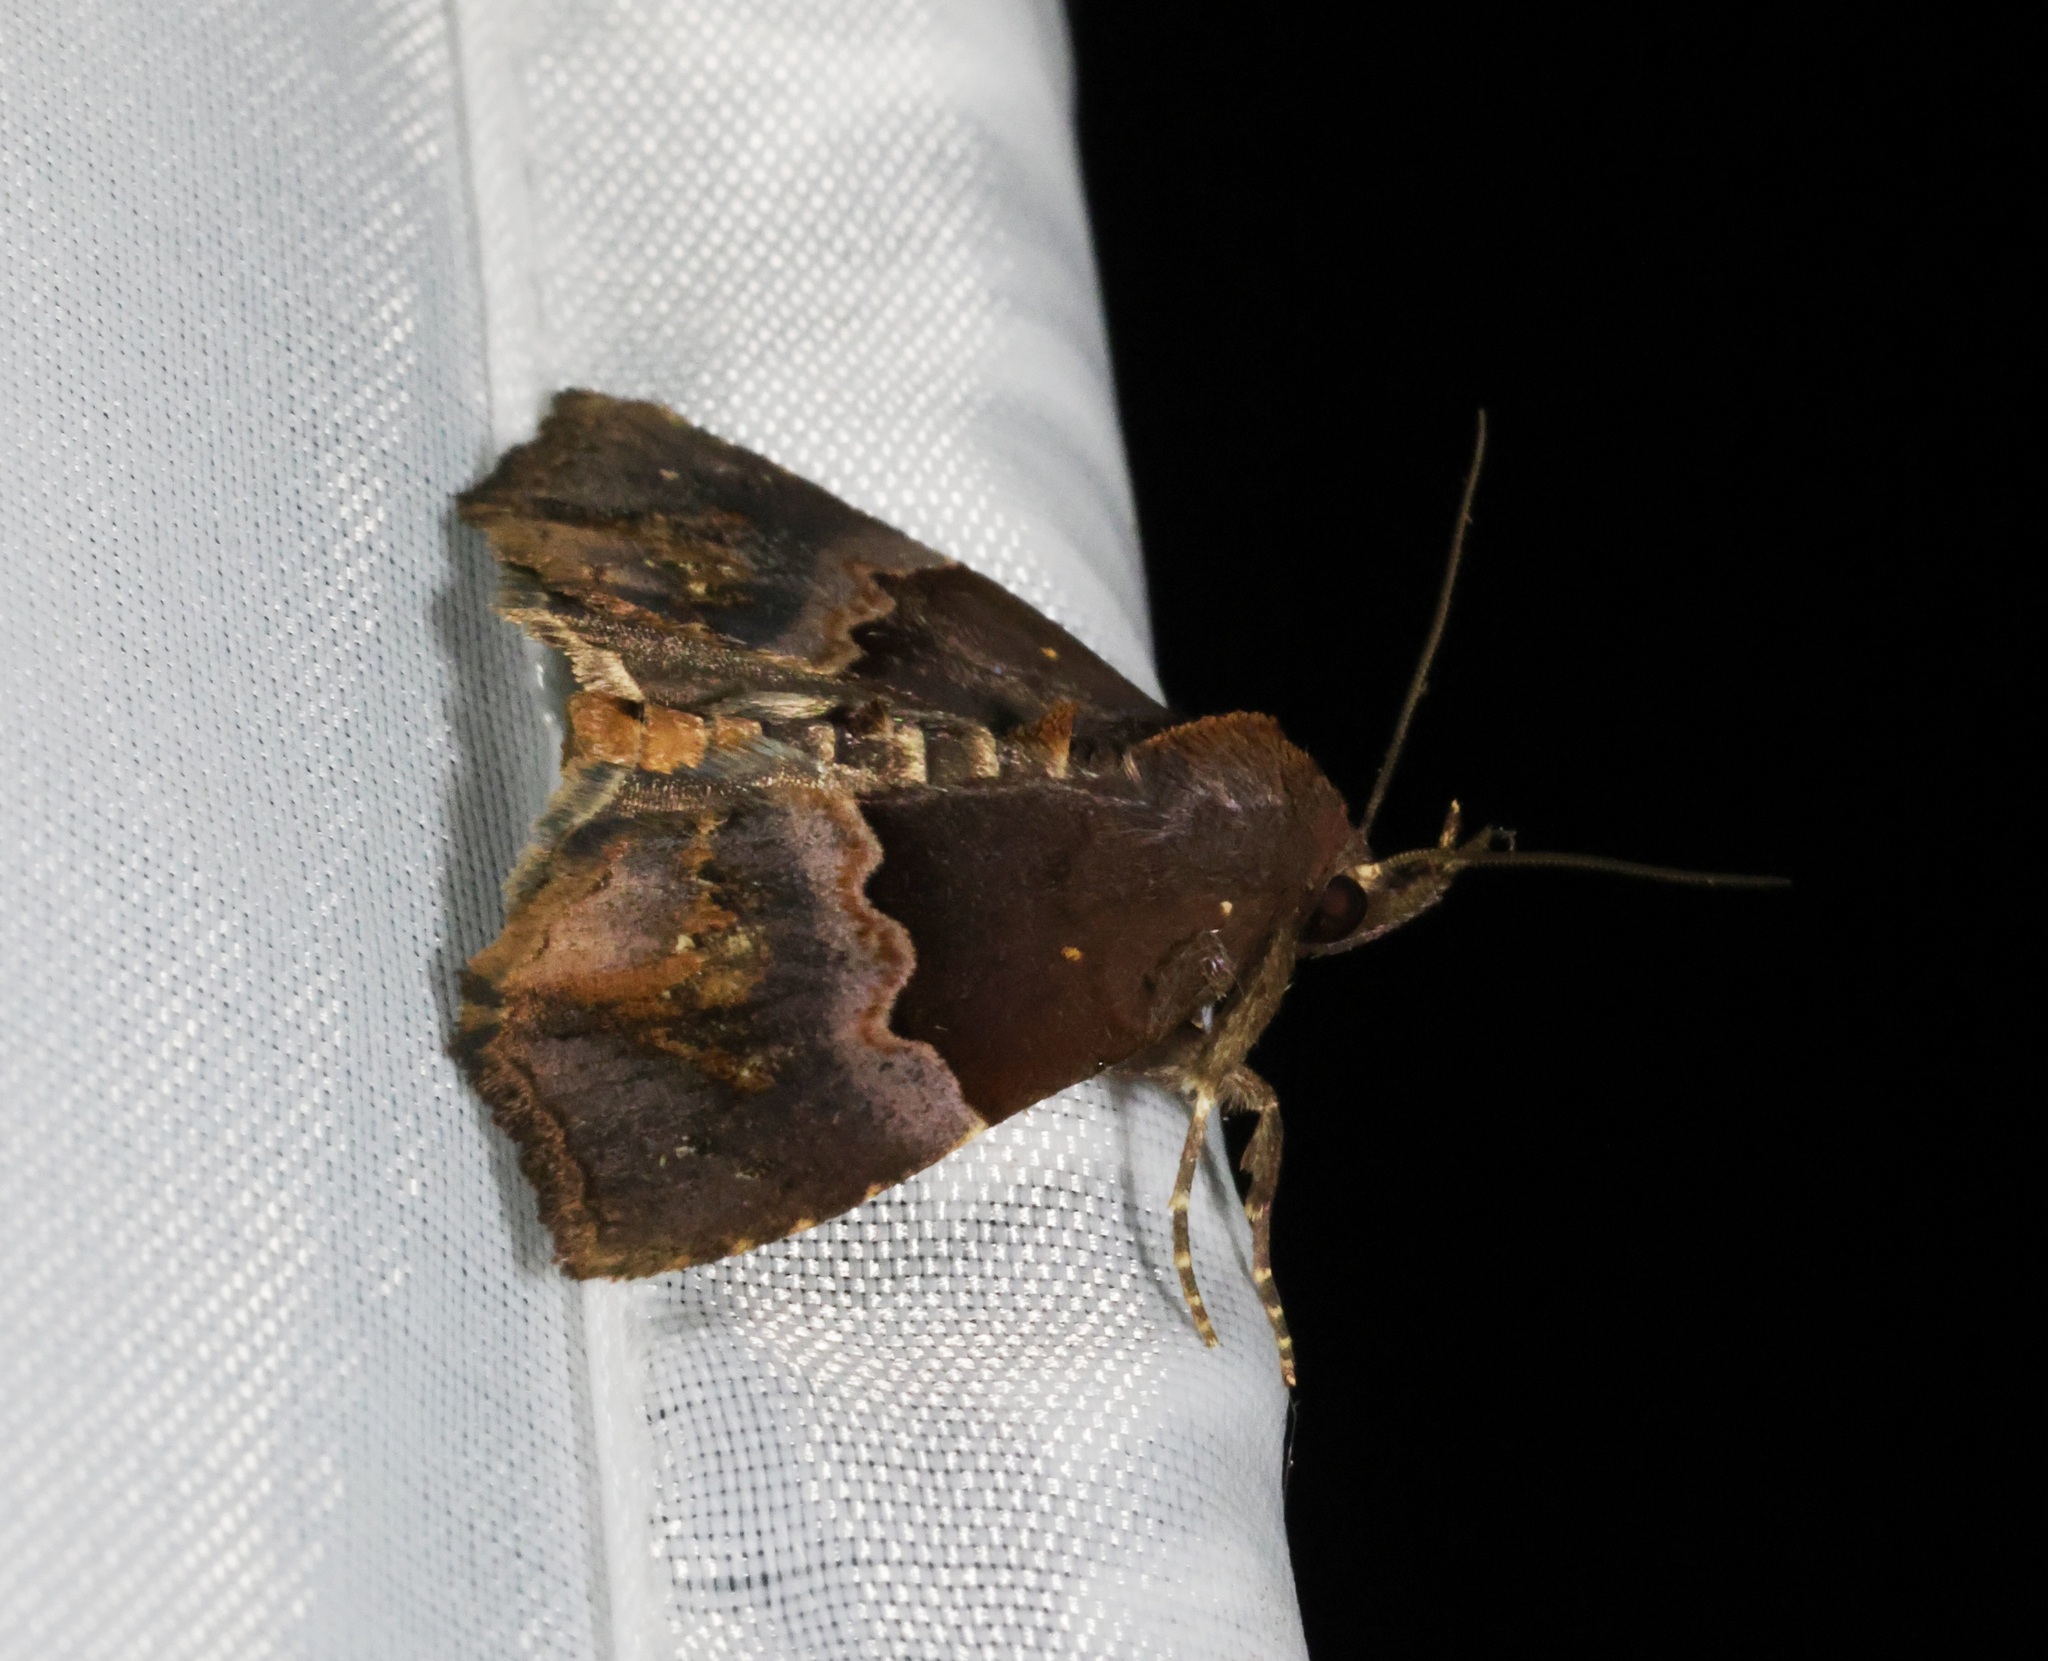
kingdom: Animalia
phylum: Arthropoda
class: Insecta
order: Lepidoptera
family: Noctuidae
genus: Ruttenstorferia
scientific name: Ruttenstorferia
